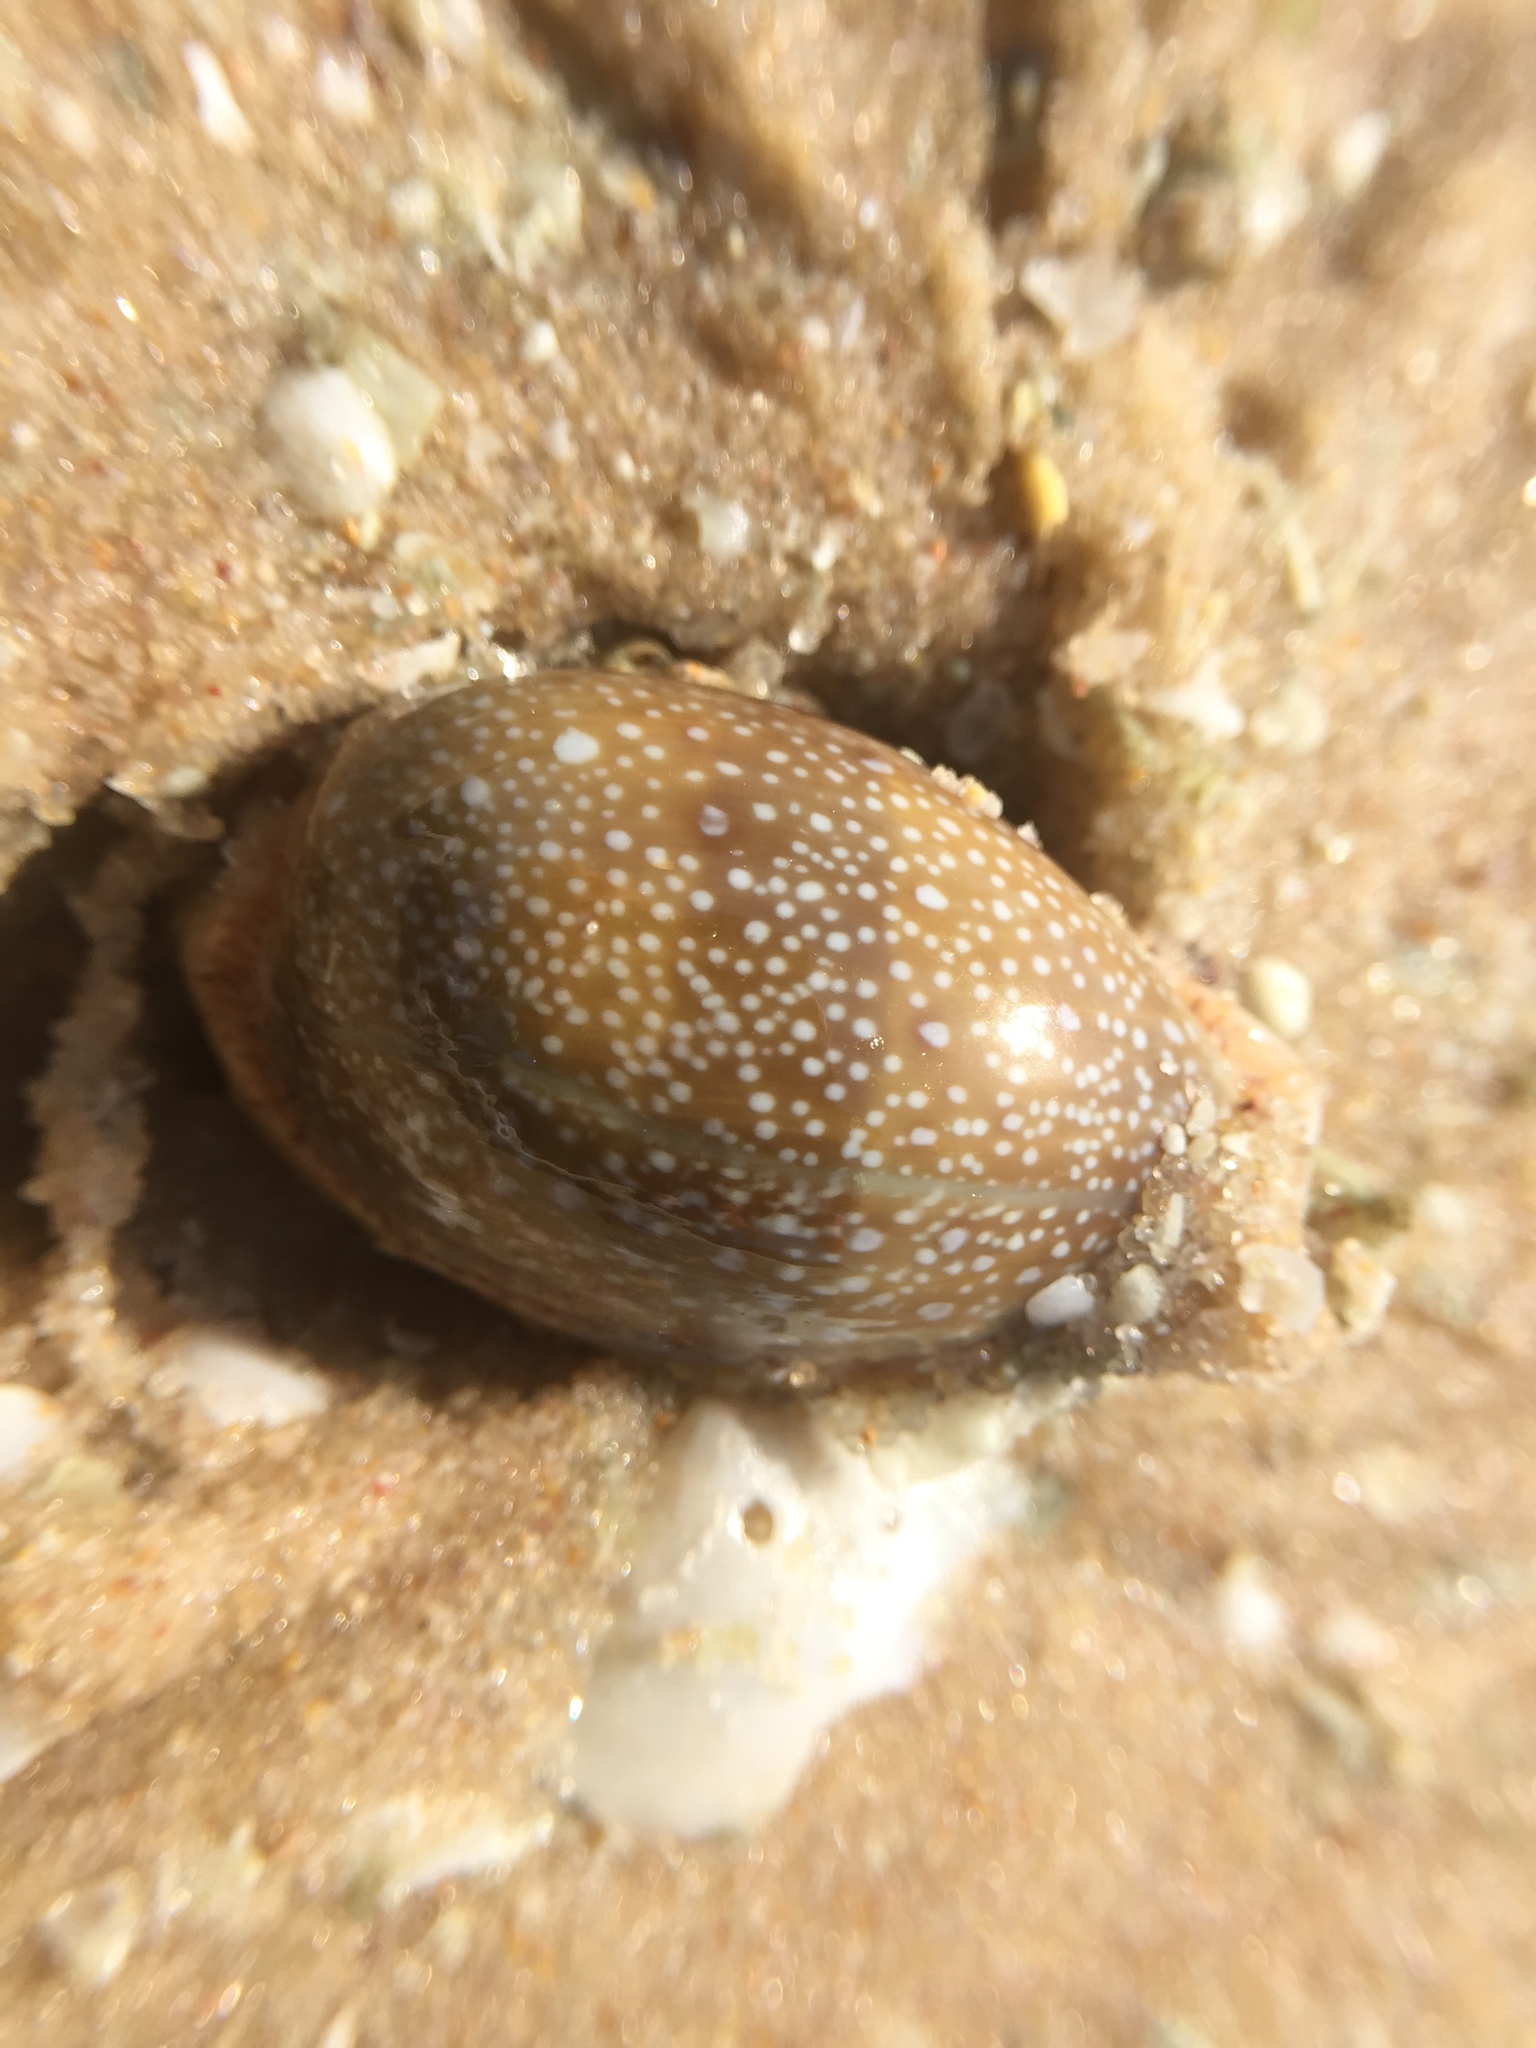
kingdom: Animalia
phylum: Mollusca
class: Gastropoda
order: Littorinimorpha
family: Cypraeidae
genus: Naria
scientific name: Naria erosa
